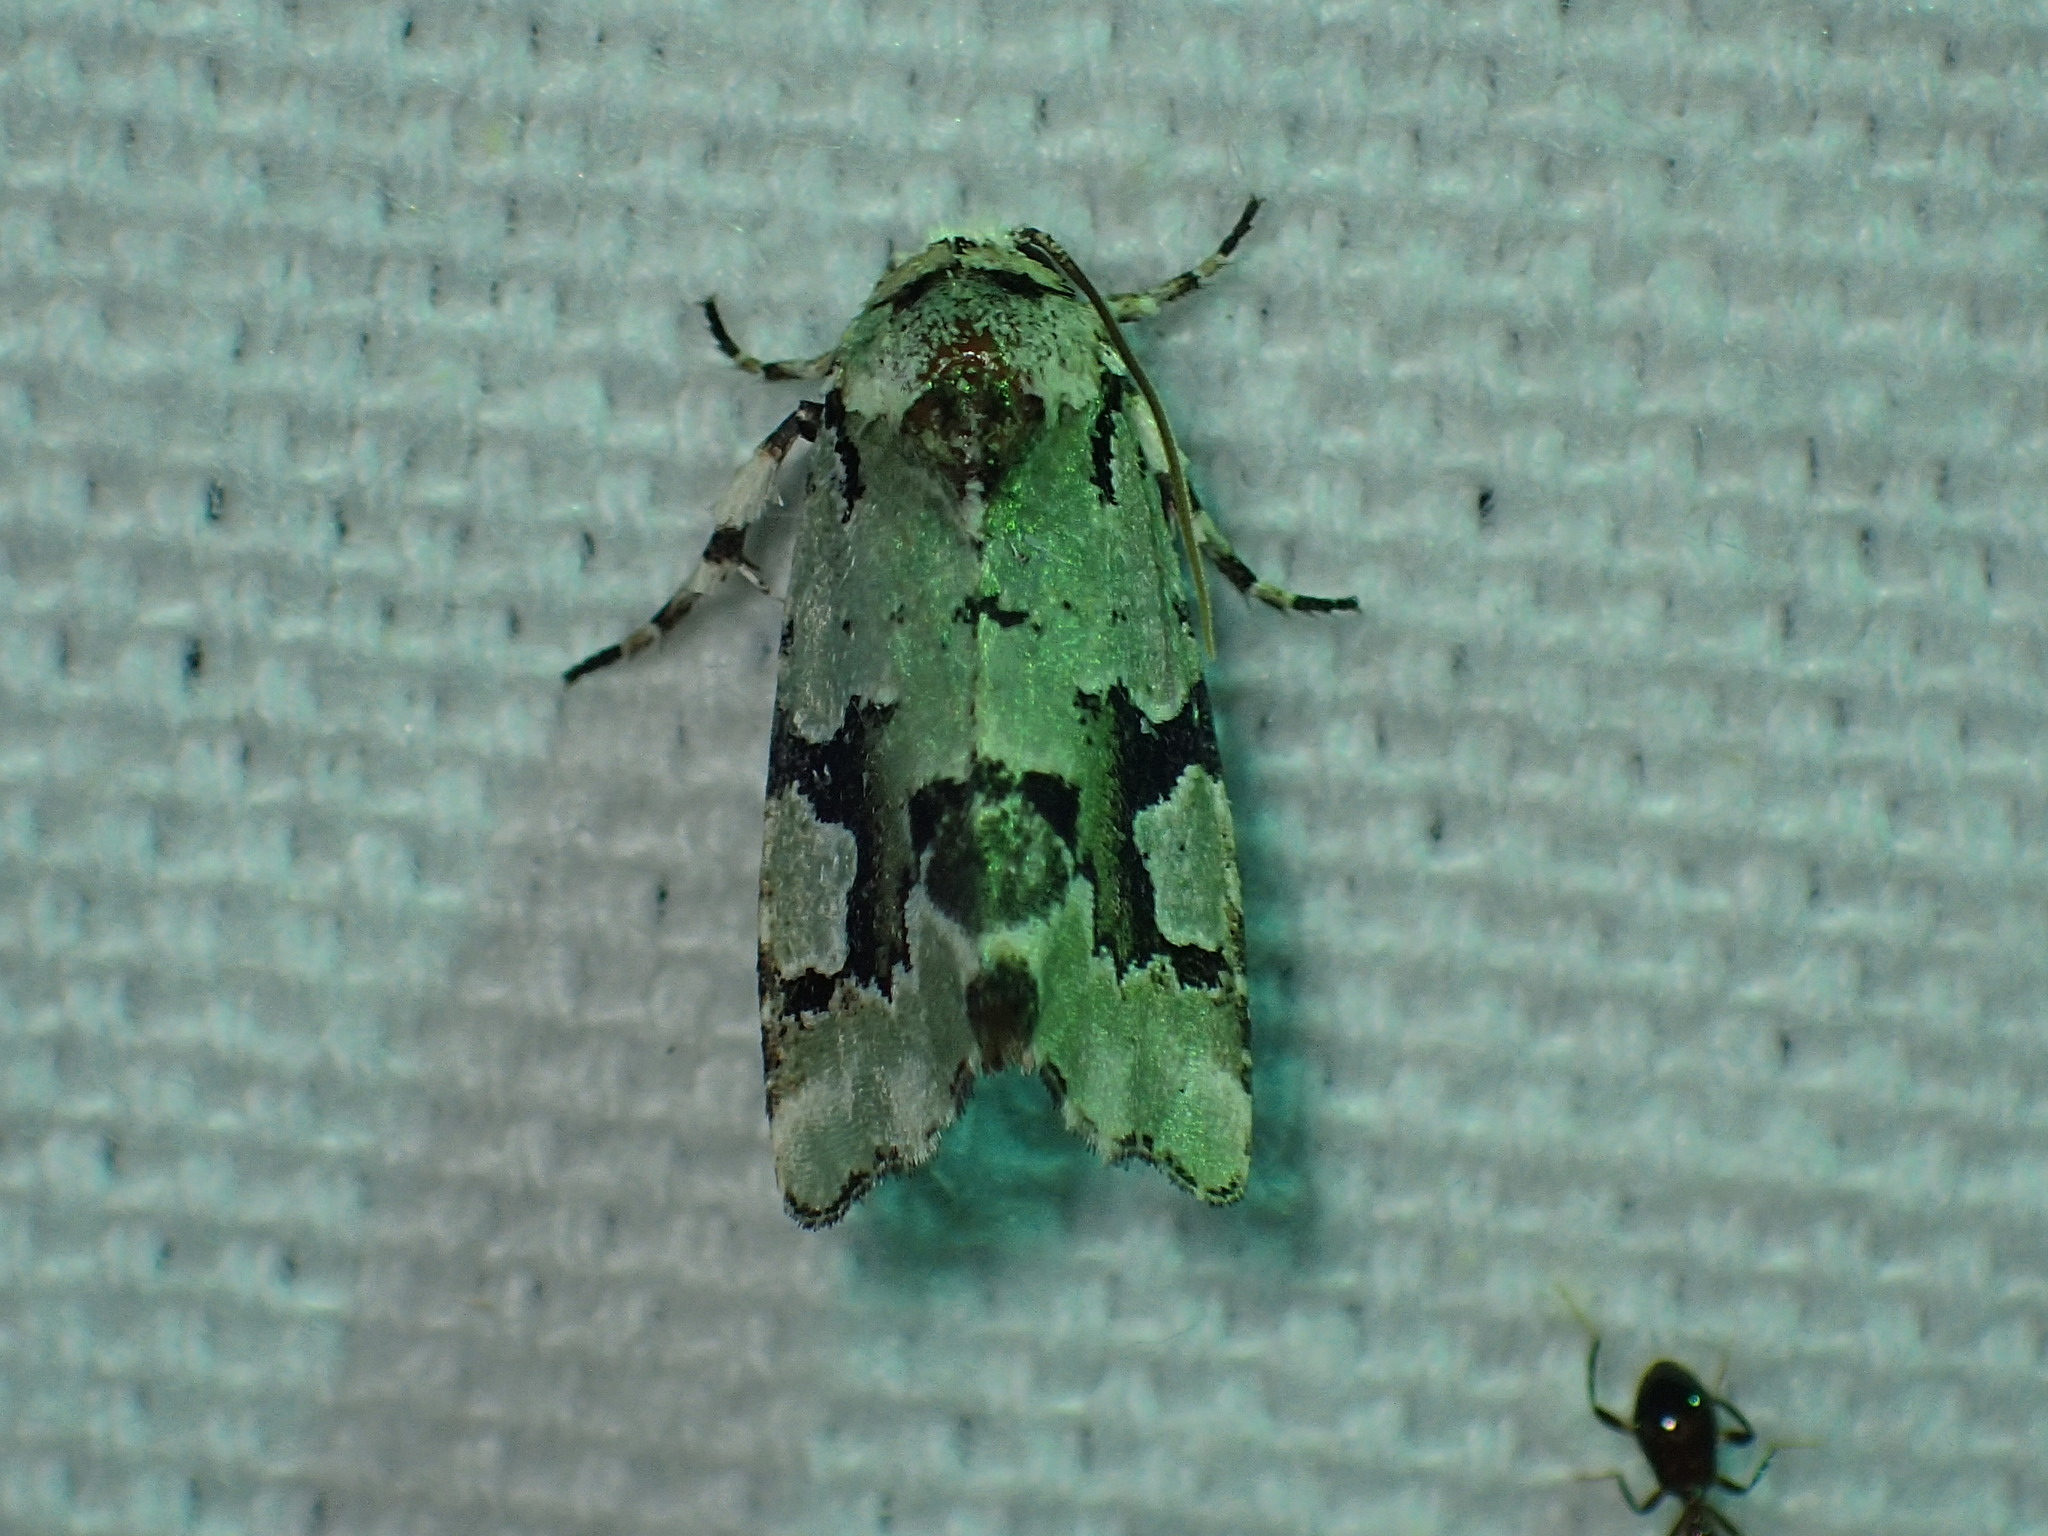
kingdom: Animalia
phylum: Arthropoda
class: Insecta
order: Lepidoptera
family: Noctuidae
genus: Emarginea
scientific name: Emarginea percara
